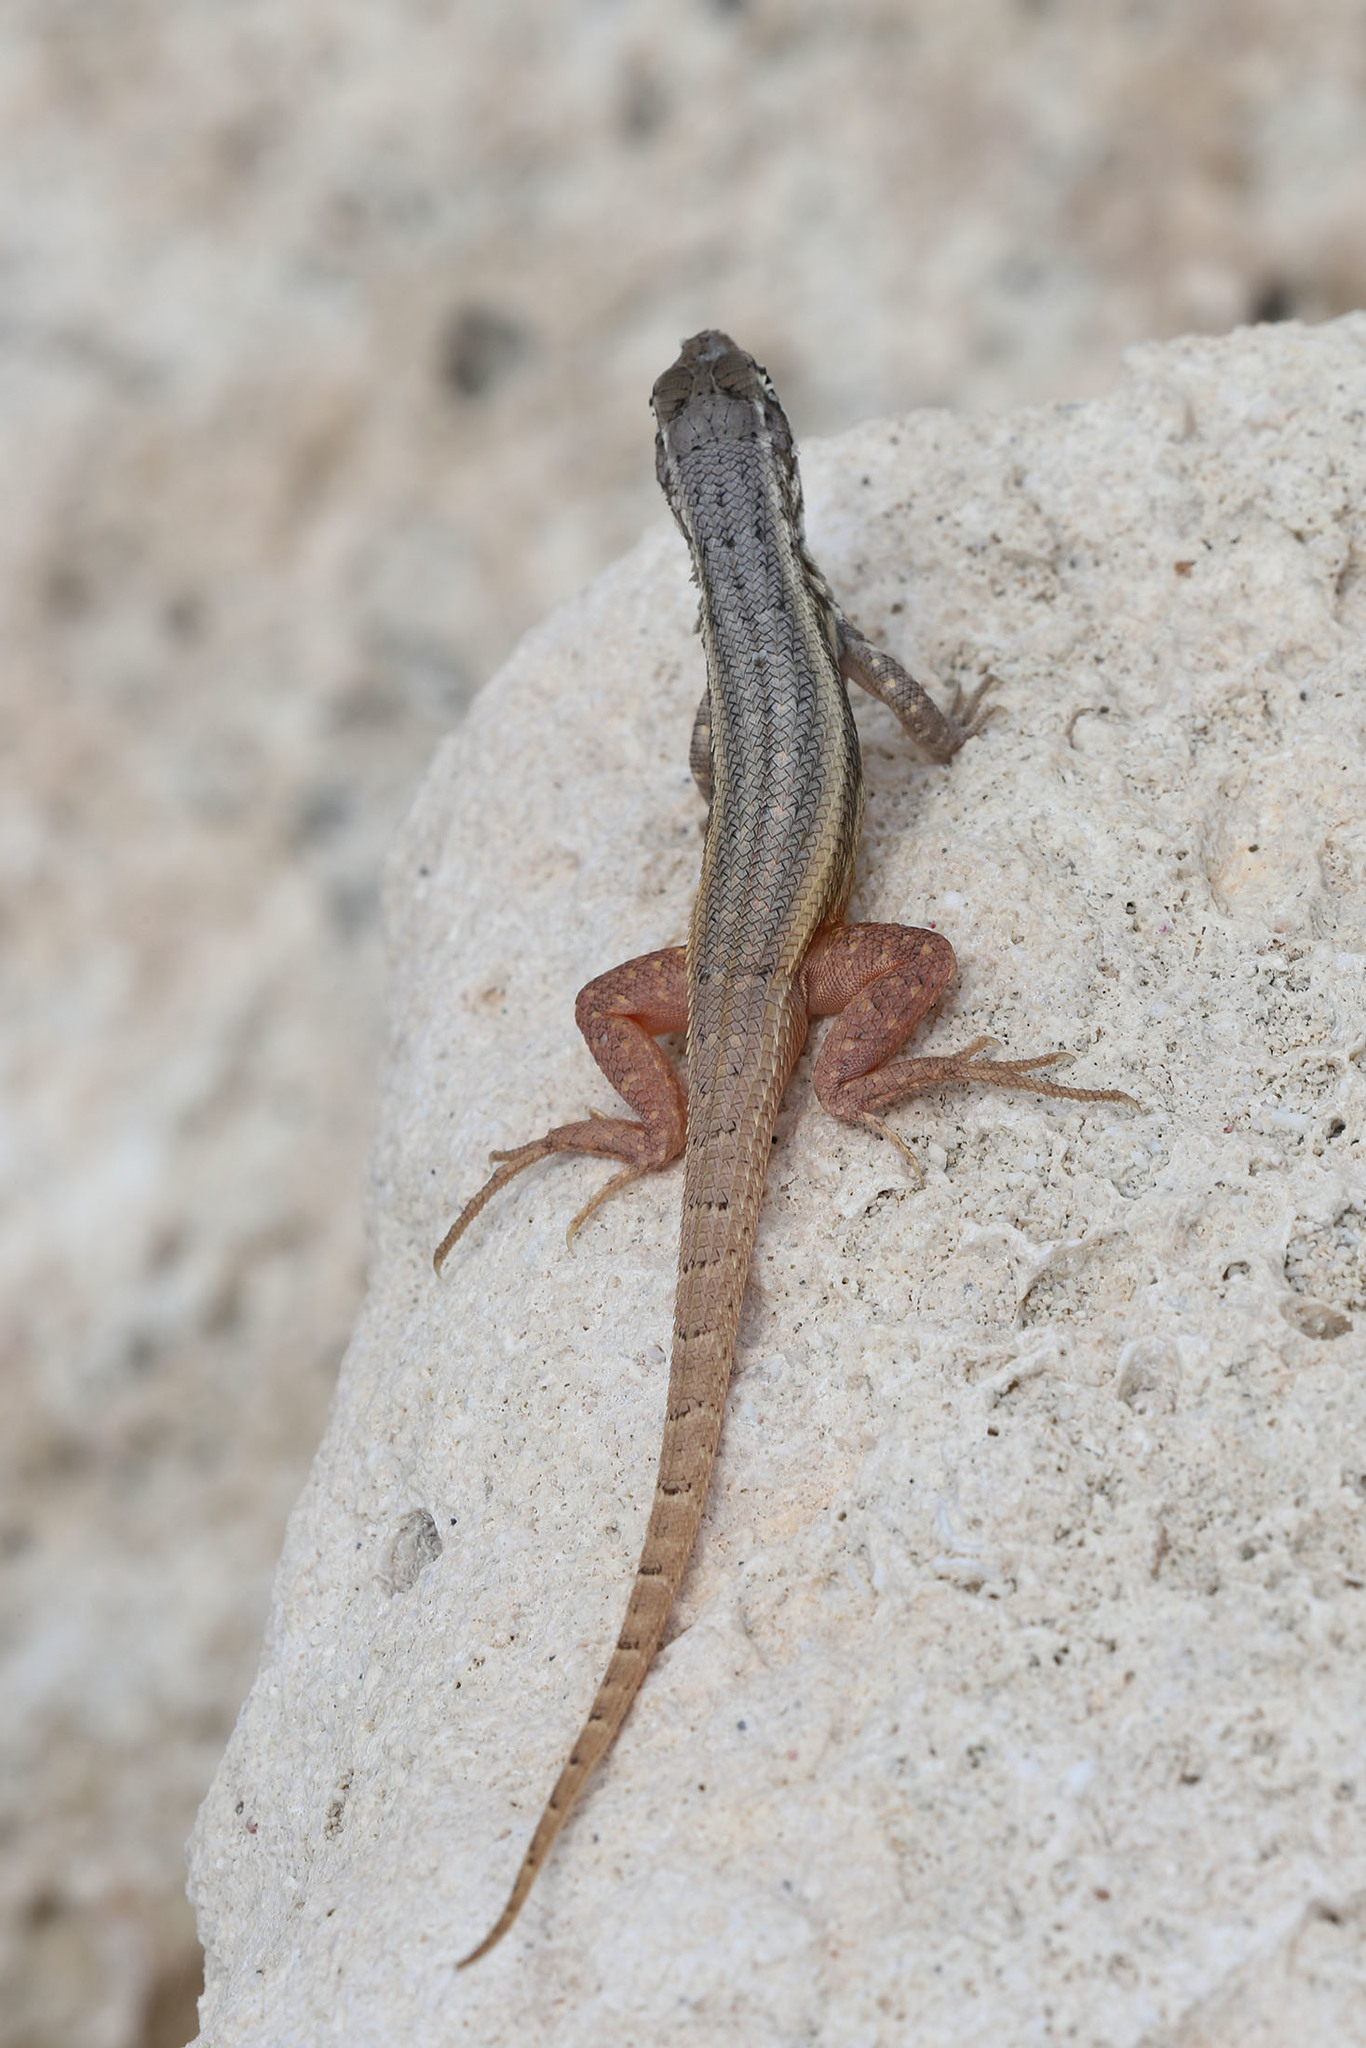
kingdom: Animalia
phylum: Chordata
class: Squamata
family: Leiocephalidae
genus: Leiocephalus
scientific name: Leiocephalus barahonensis
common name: Barahona curlytail lizard
